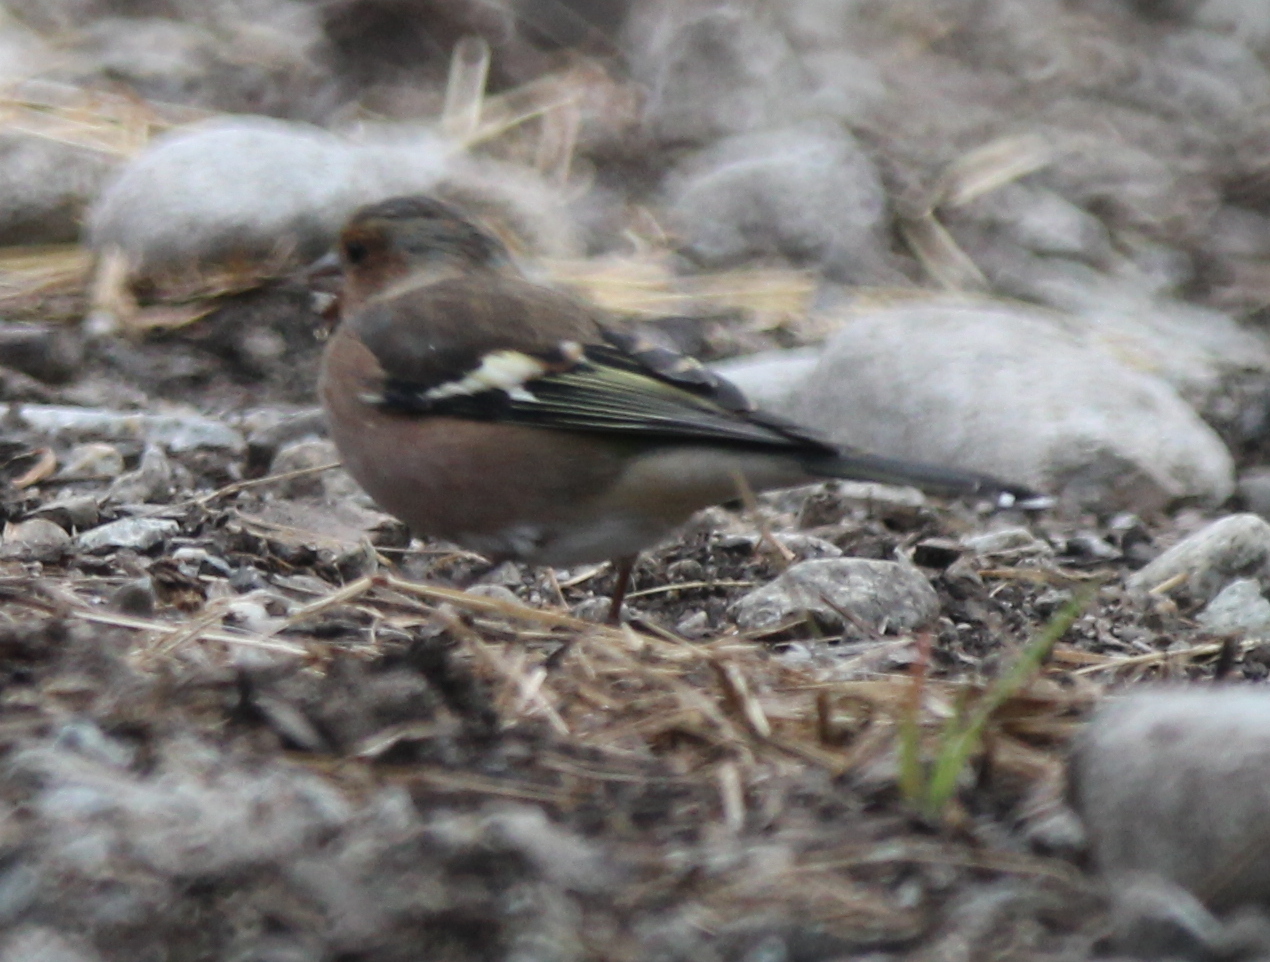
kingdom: Animalia
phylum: Chordata
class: Aves
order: Passeriformes
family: Fringillidae
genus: Fringilla
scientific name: Fringilla coelebs
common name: Common chaffinch
